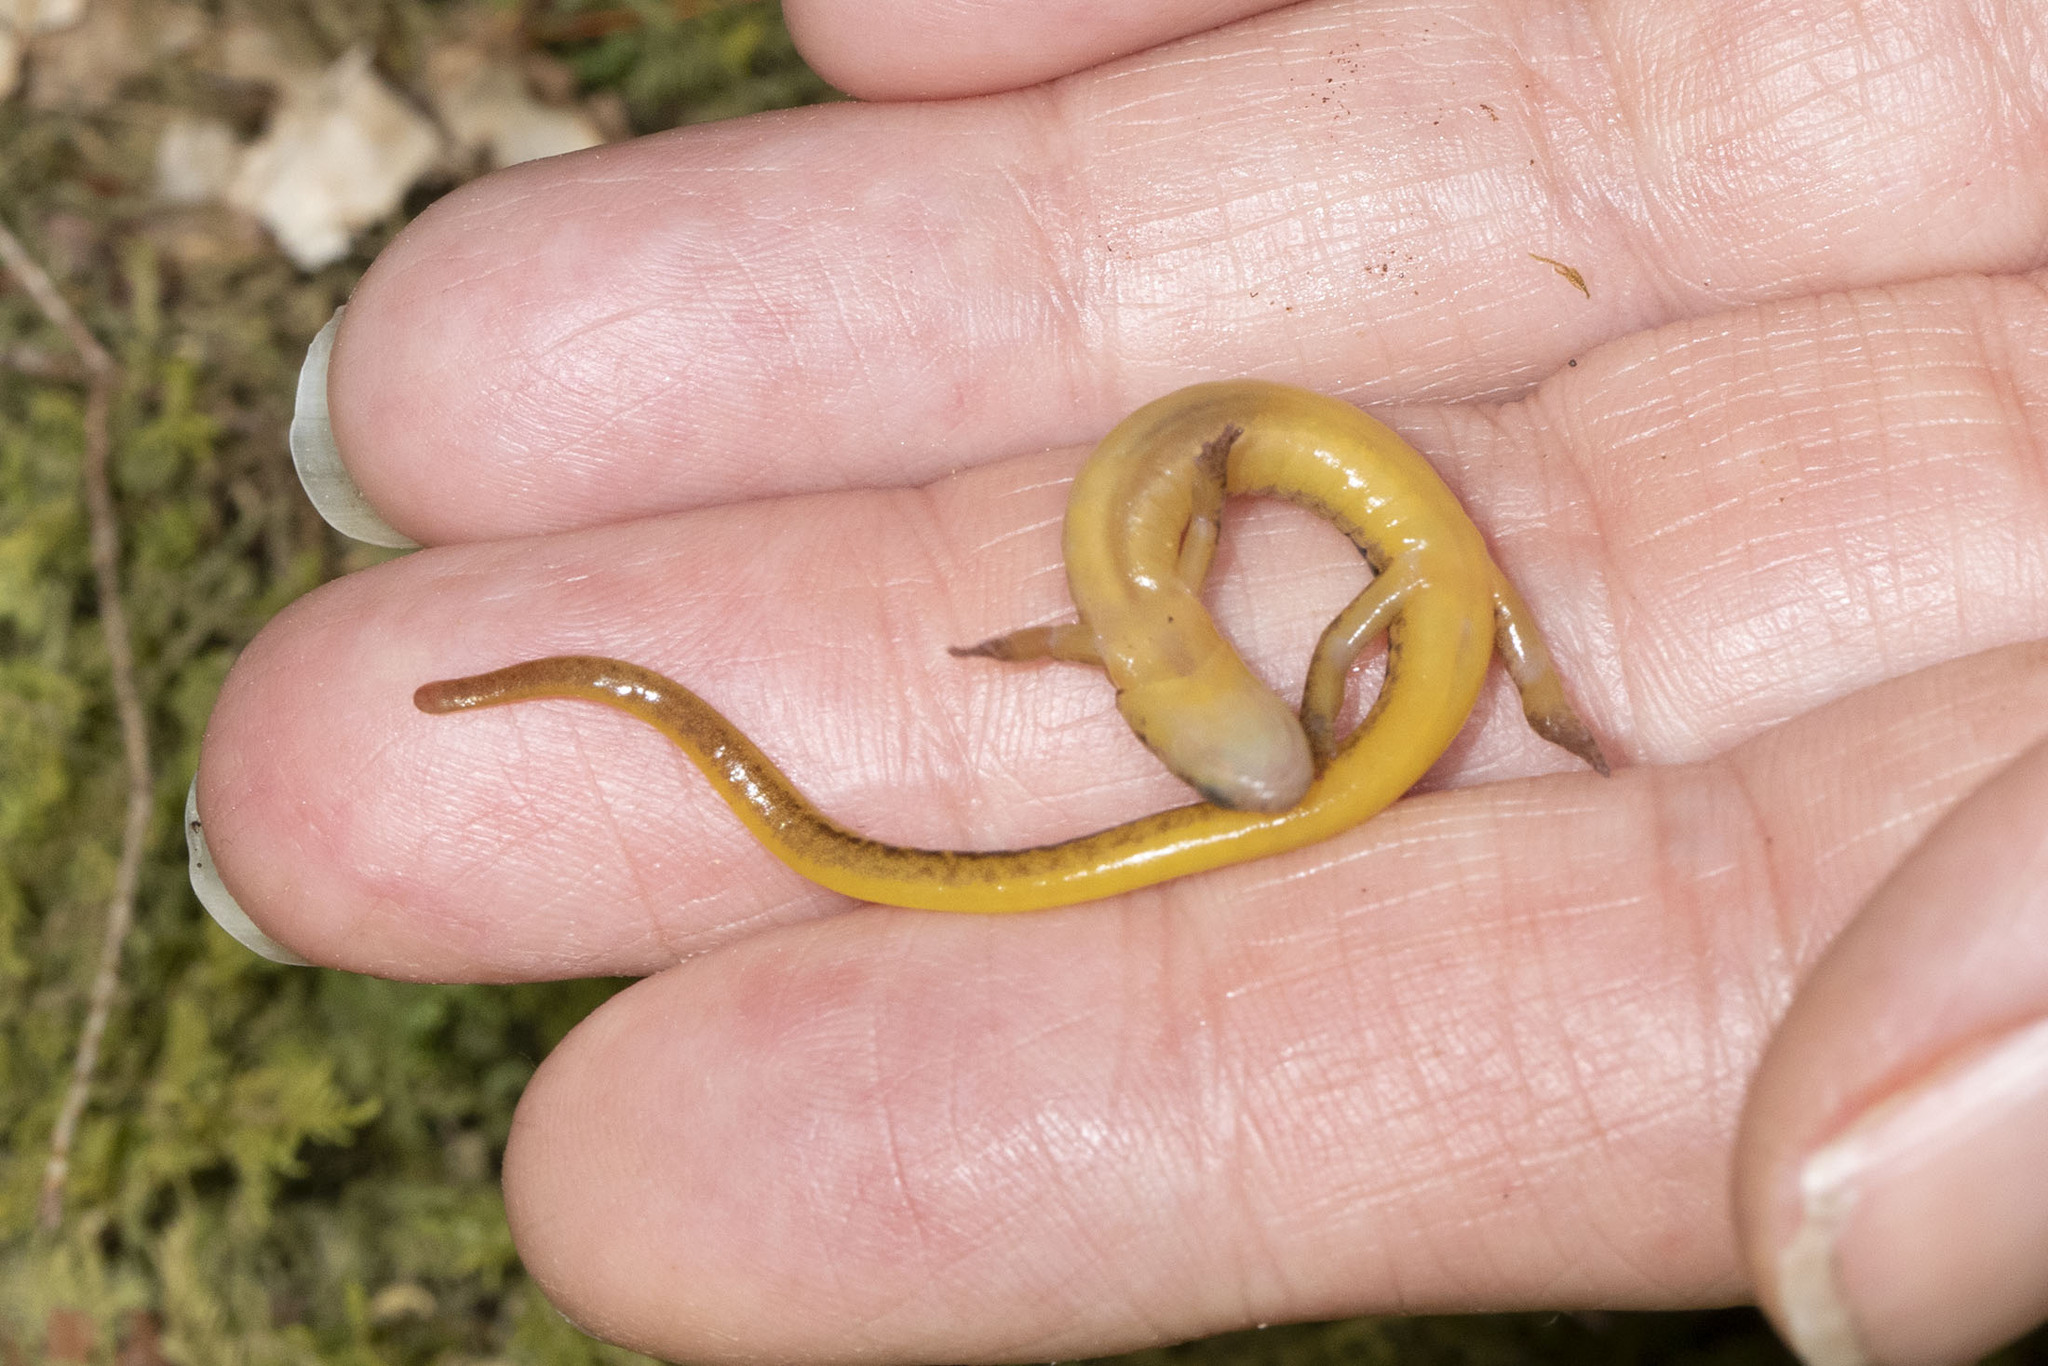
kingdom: Animalia
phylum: Chordata
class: Amphibia
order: Caudata
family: Plethodontidae
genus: Eurycea
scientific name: Eurycea wilderae
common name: Blue ridge two-lined salamander
